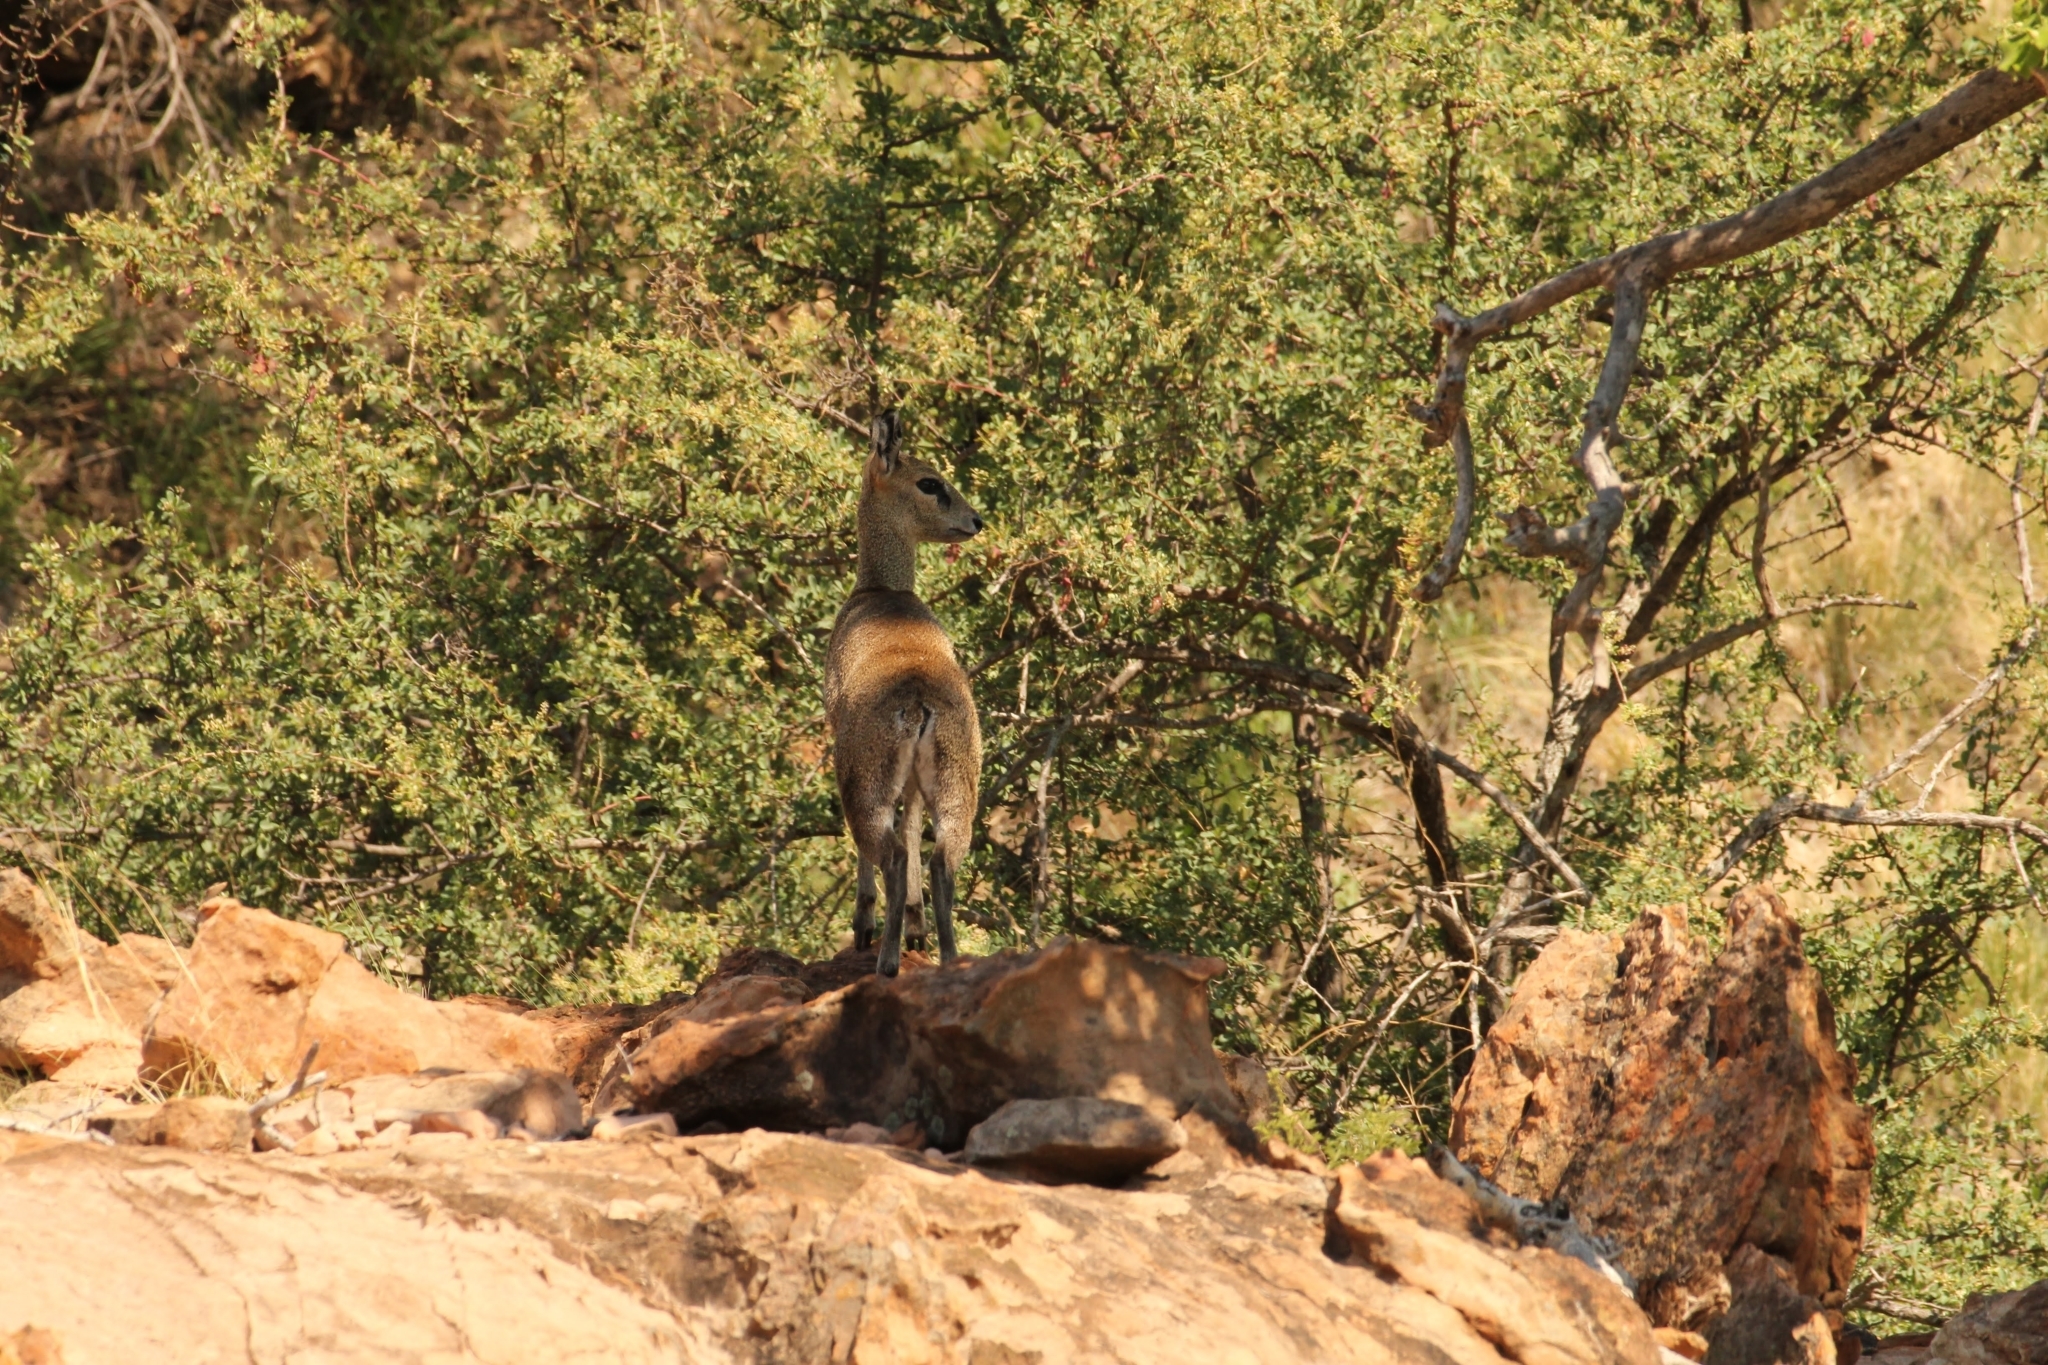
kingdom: Animalia
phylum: Chordata
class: Mammalia
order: Artiodactyla
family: Bovidae
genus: Oreotragus
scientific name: Oreotragus oreotragus
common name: Klipspringer
